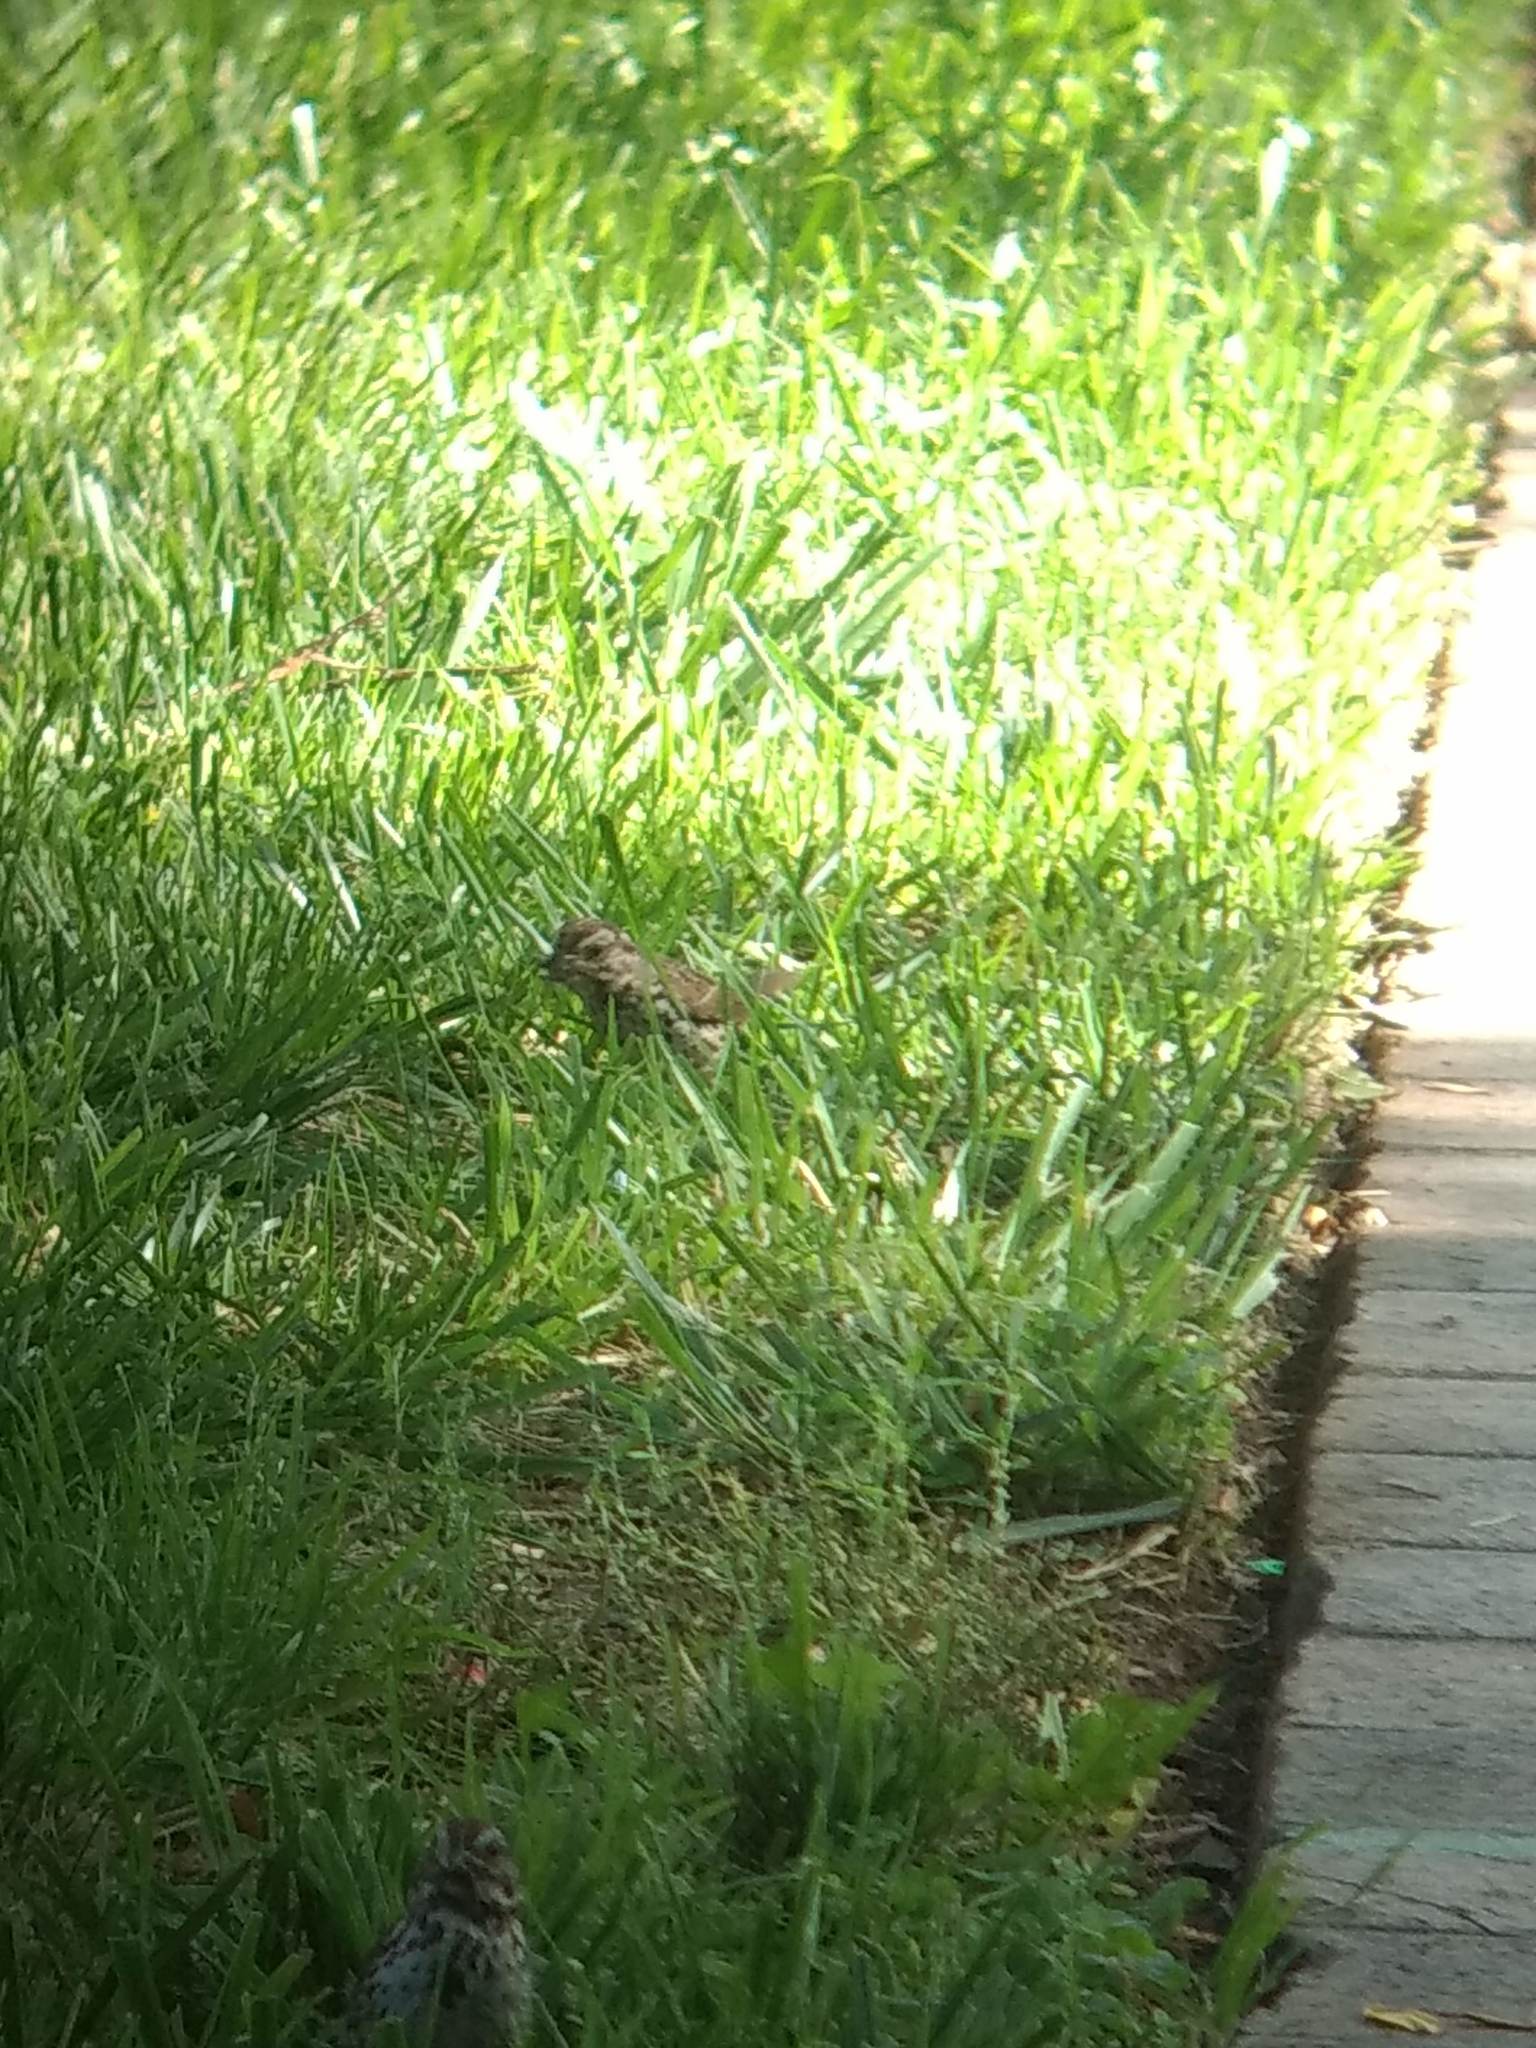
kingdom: Animalia
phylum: Chordata
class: Aves
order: Passeriformes
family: Passerellidae
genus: Melospiza
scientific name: Melospiza melodia
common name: Song sparrow
